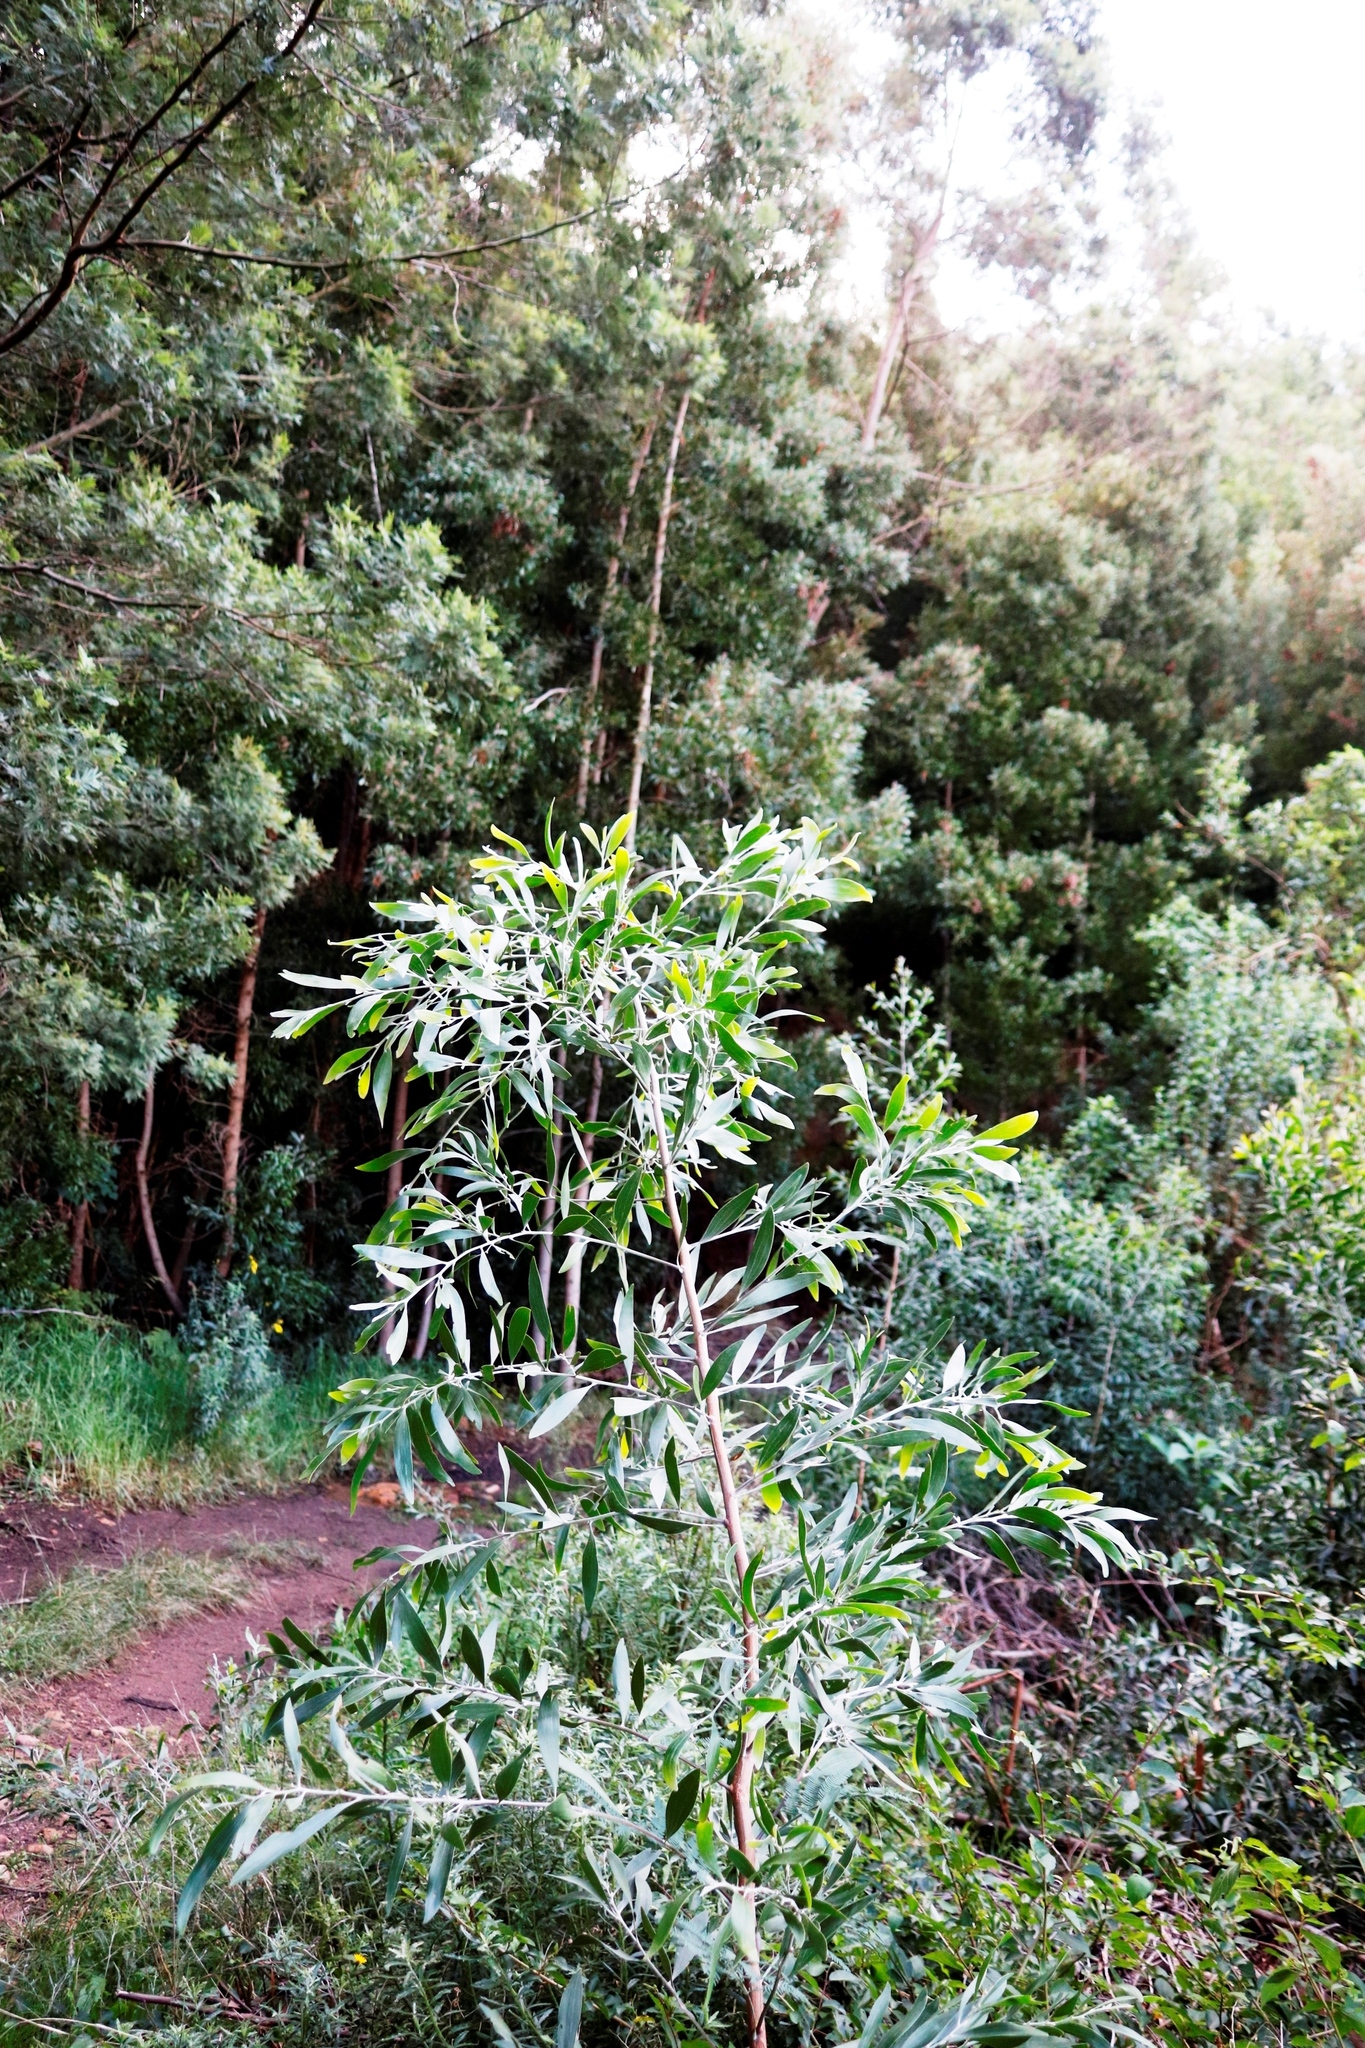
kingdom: Plantae
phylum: Tracheophyta
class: Magnoliopsida
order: Fabales
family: Fabaceae
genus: Acacia
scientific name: Acacia melanoxylon
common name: Blackwood
